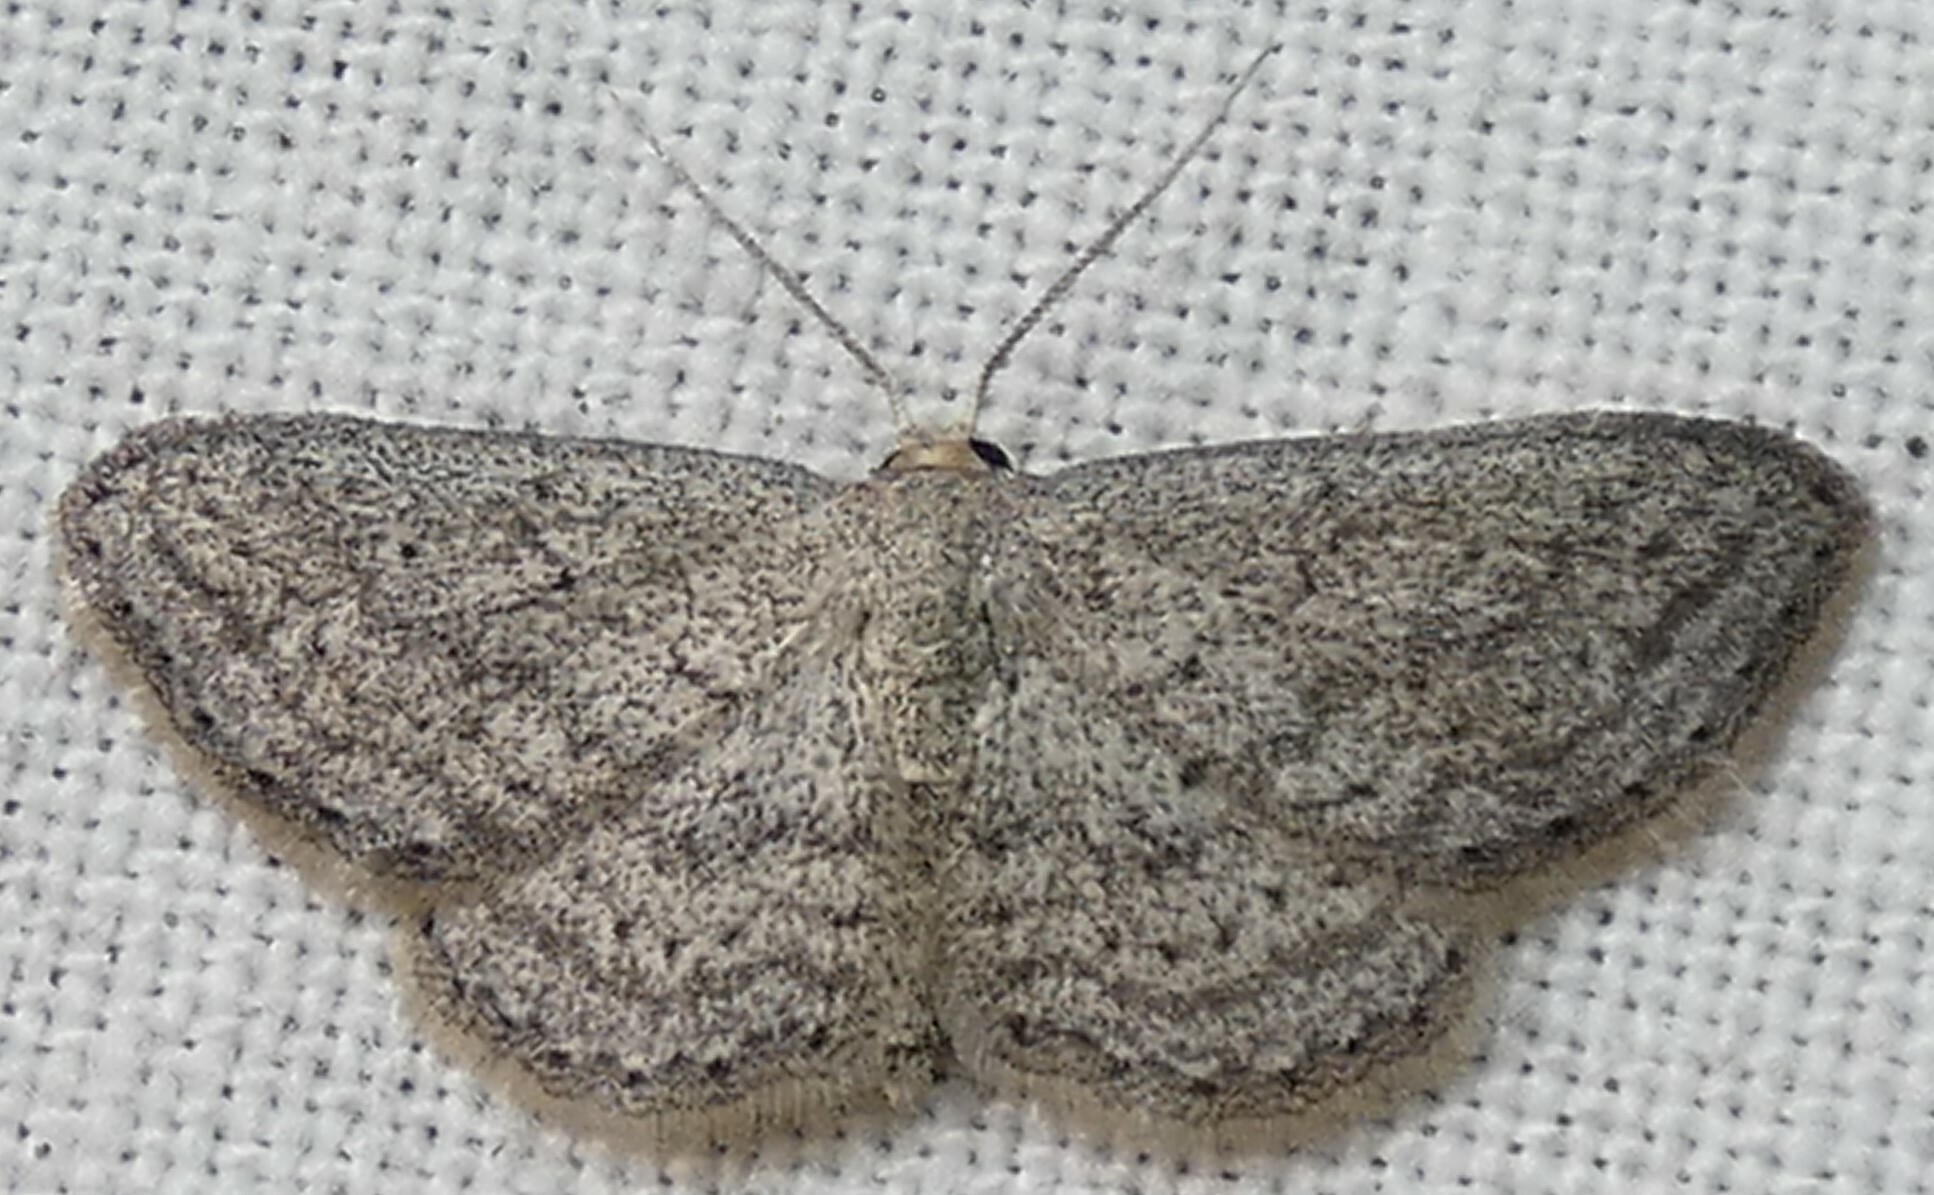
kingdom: Animalia
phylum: Arthropoda
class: Insecta
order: Lepidoptera
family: Geometridae
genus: Lobocleta
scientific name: Lobocleta ossularia
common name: Drab brown wave
